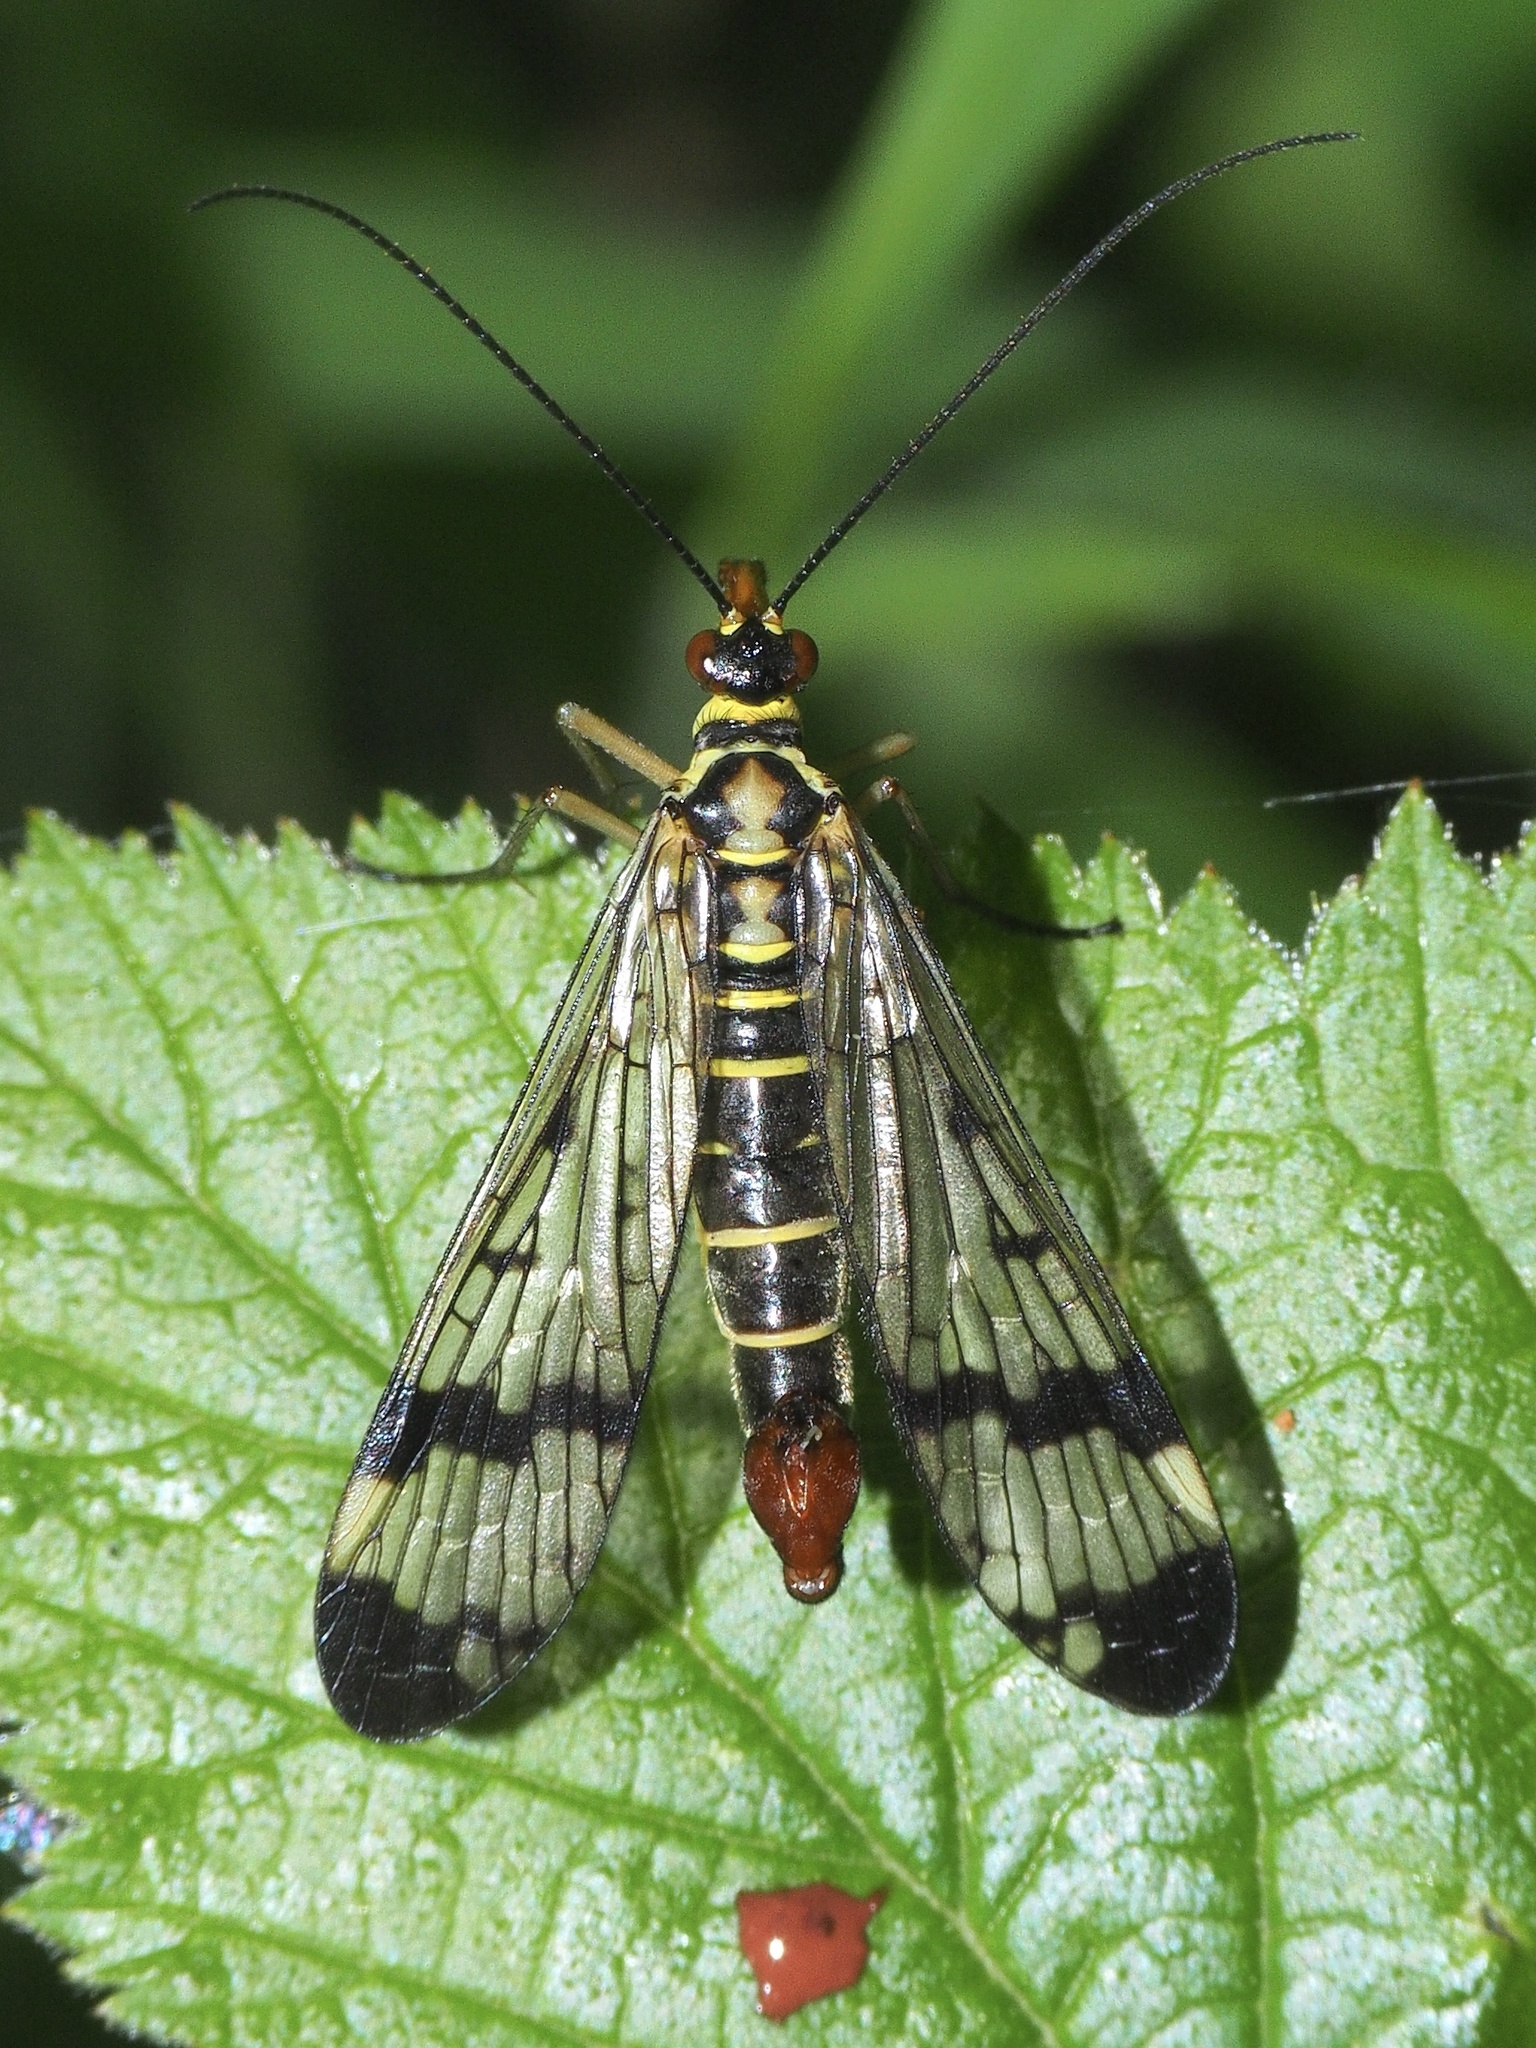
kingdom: Animalia
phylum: Arthropoda
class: Insecta
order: Mecoptera
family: Panorpidae
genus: Panorpa
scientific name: Panorpa communis
